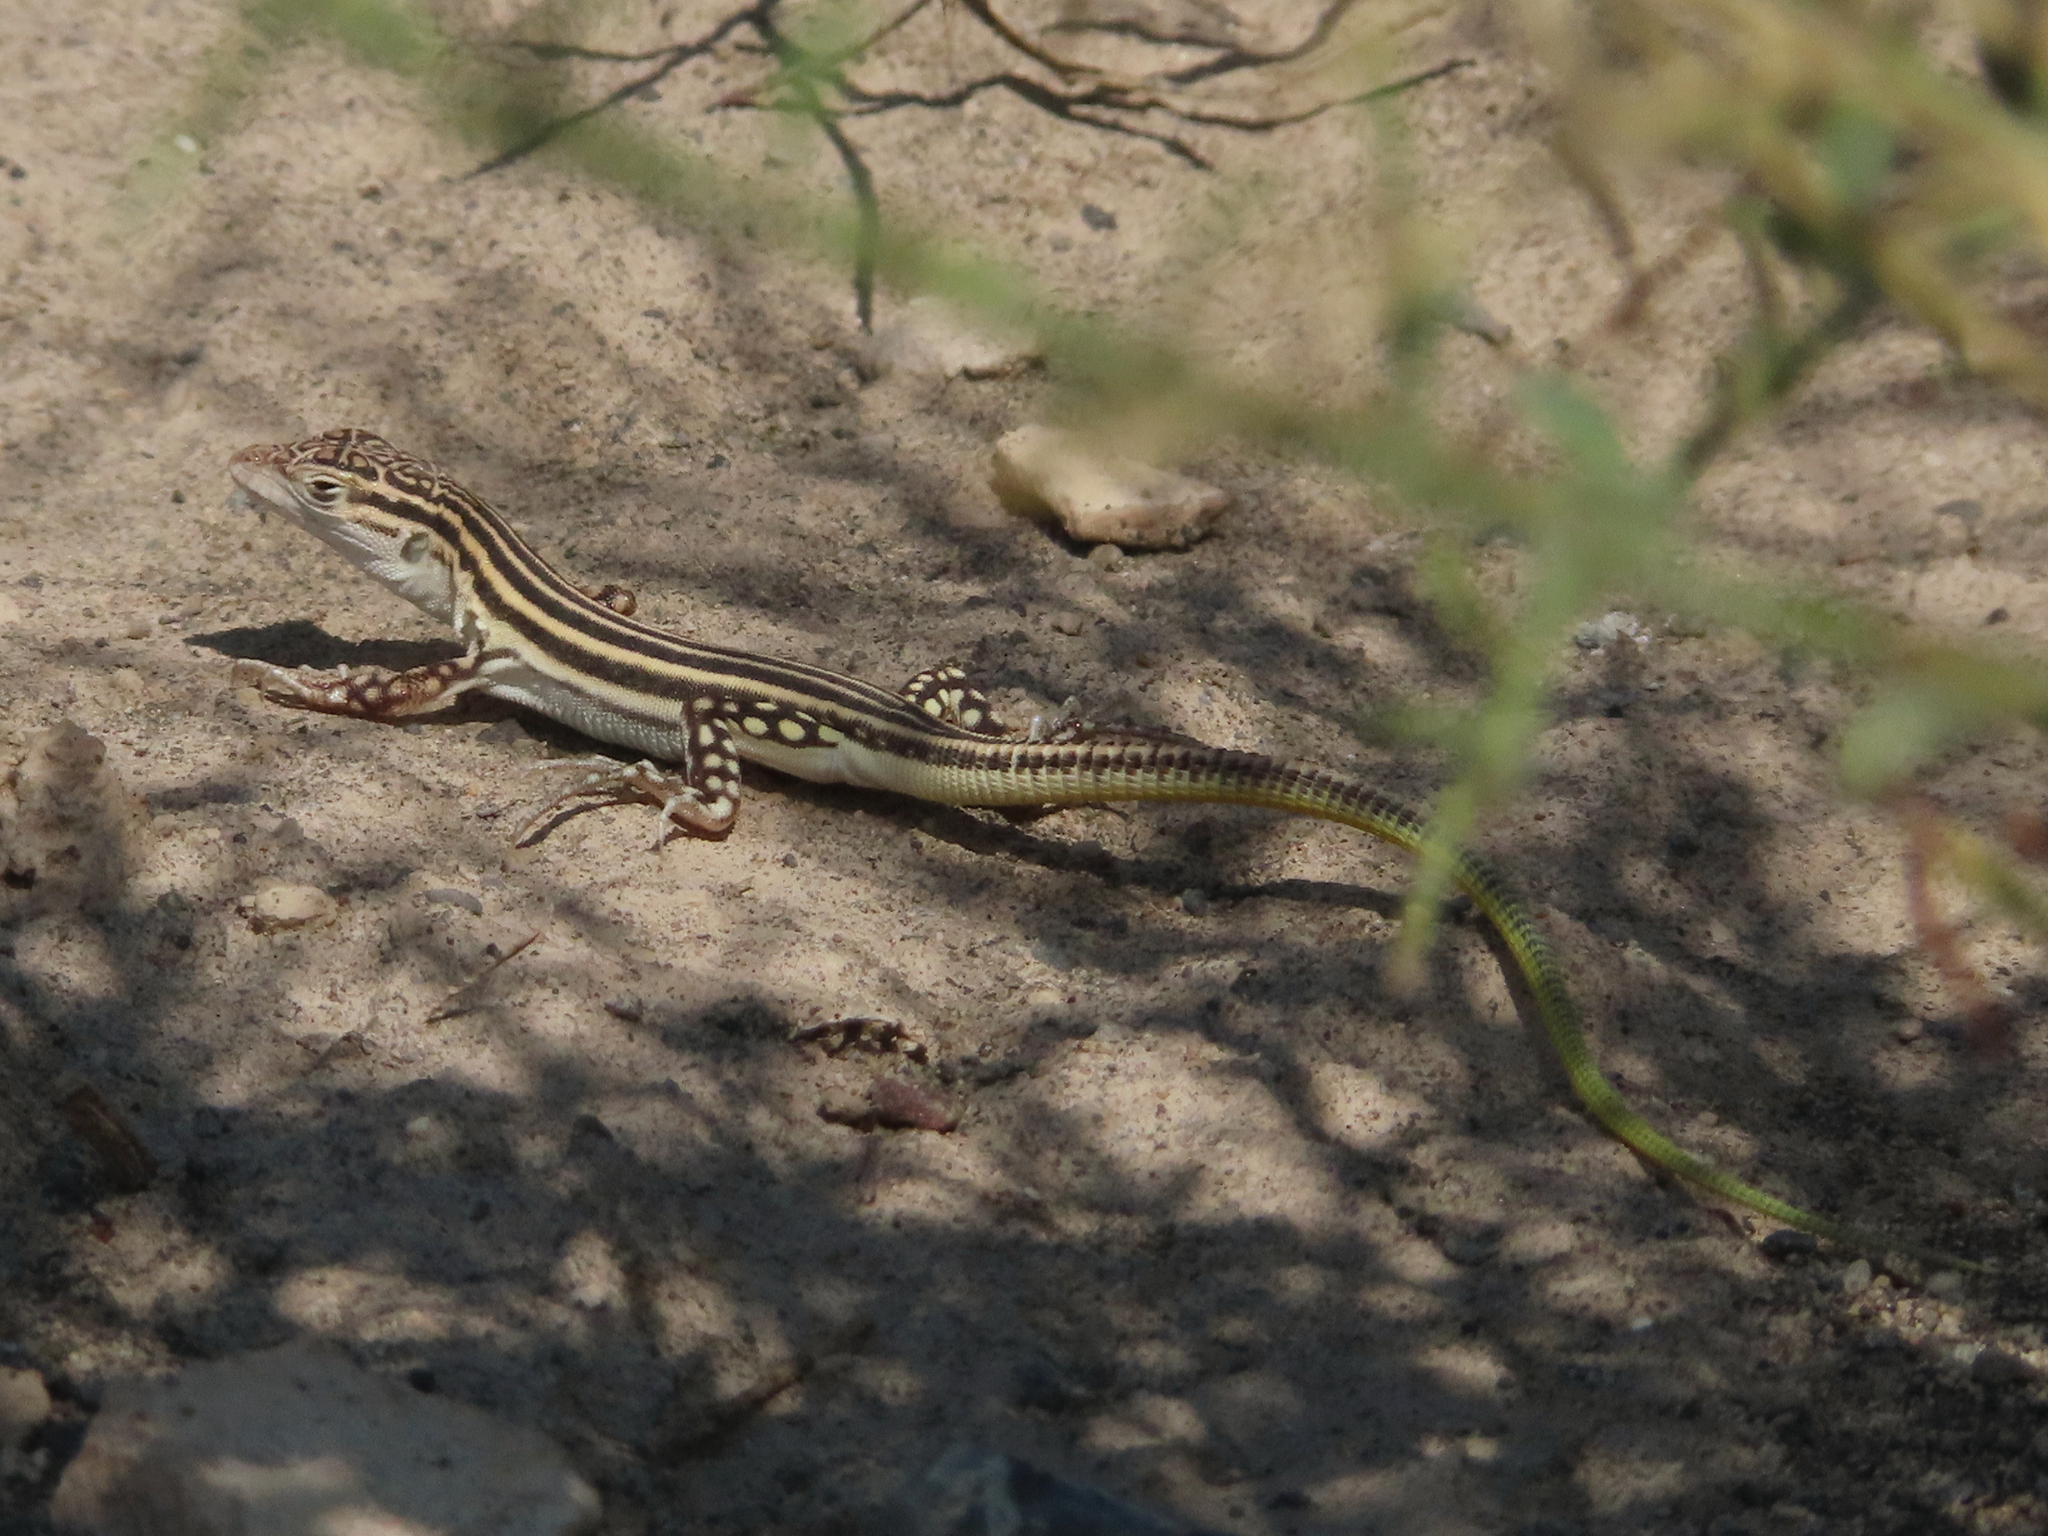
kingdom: Animalia
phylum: Chordata
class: Squamata
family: Lacertidae
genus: Eremias
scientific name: Eremias pleskei
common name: Pleske's racerunner
